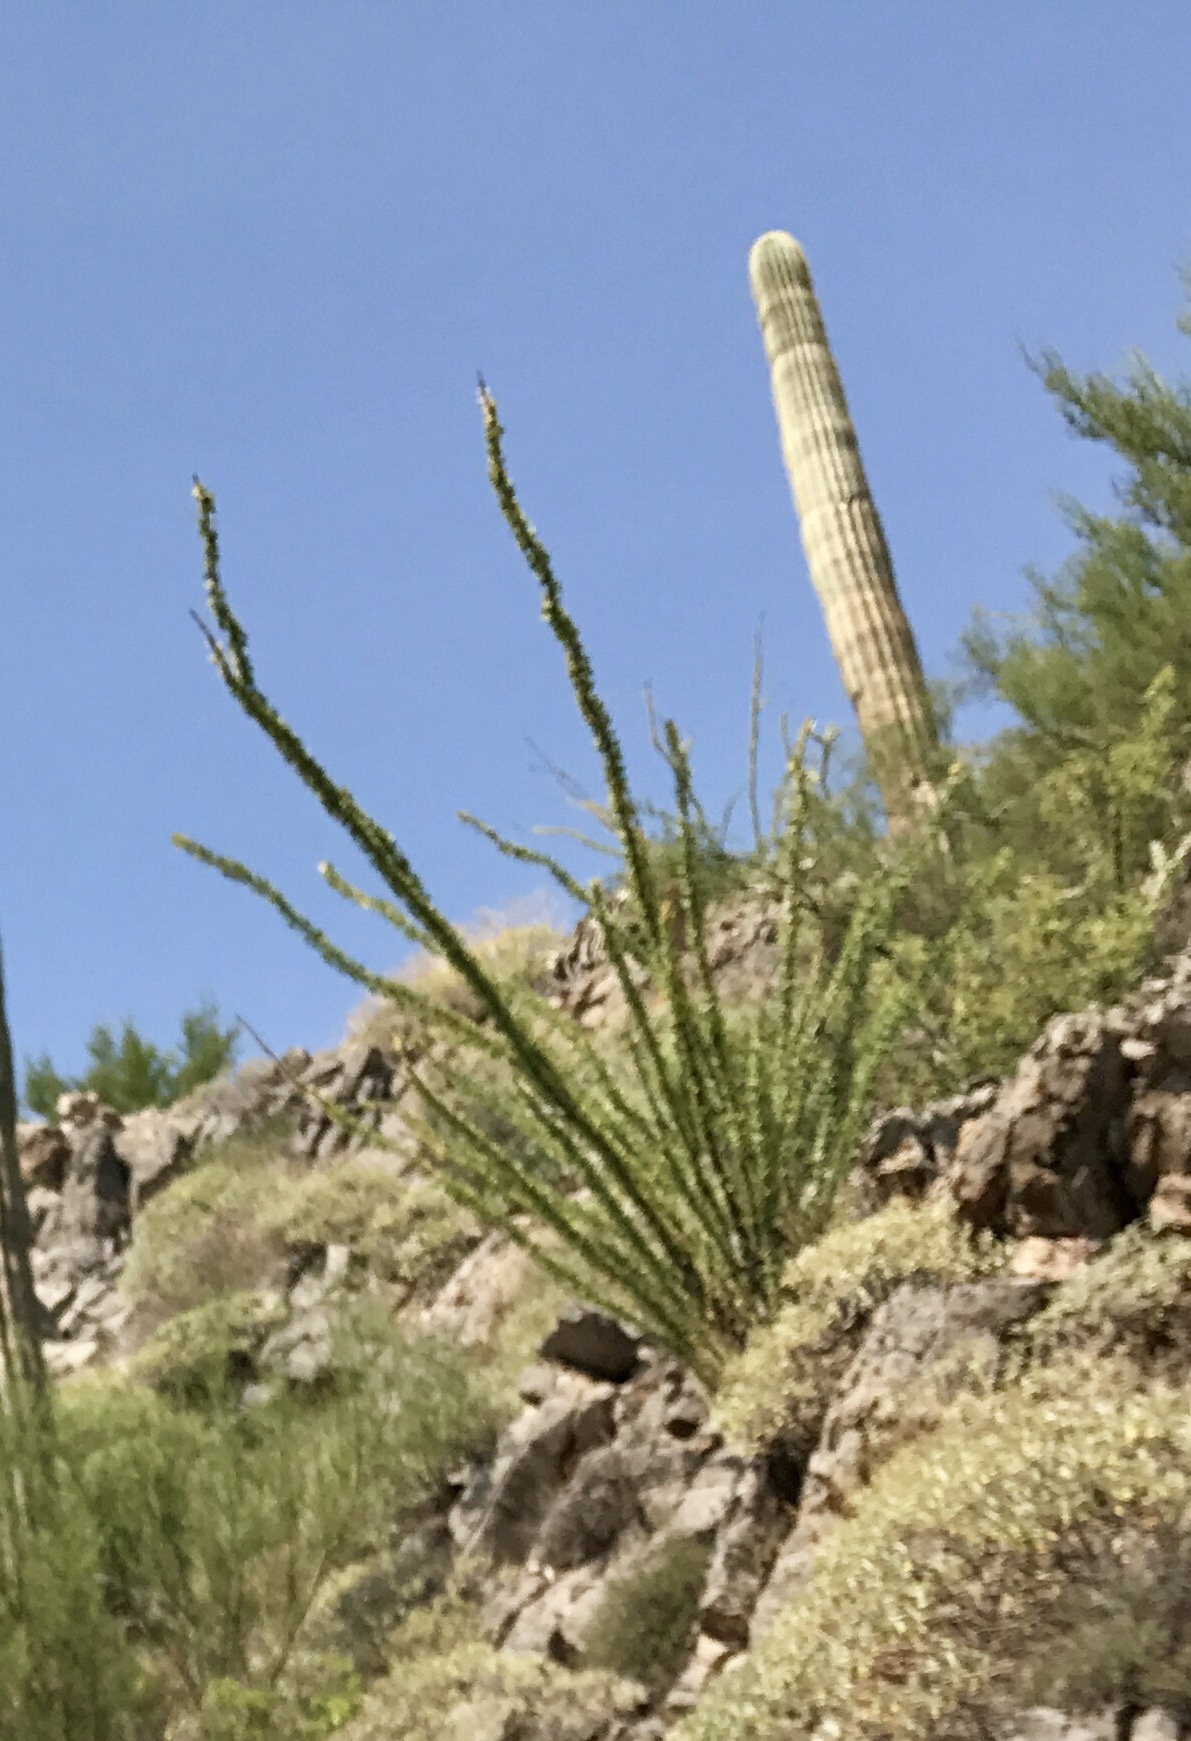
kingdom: Plantae
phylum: Tracheophyta
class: Magnoliopsida
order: Ericales
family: Fouquieriaceae
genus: Fouquieria
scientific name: Fouquieria splendens
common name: Vine-cactus
